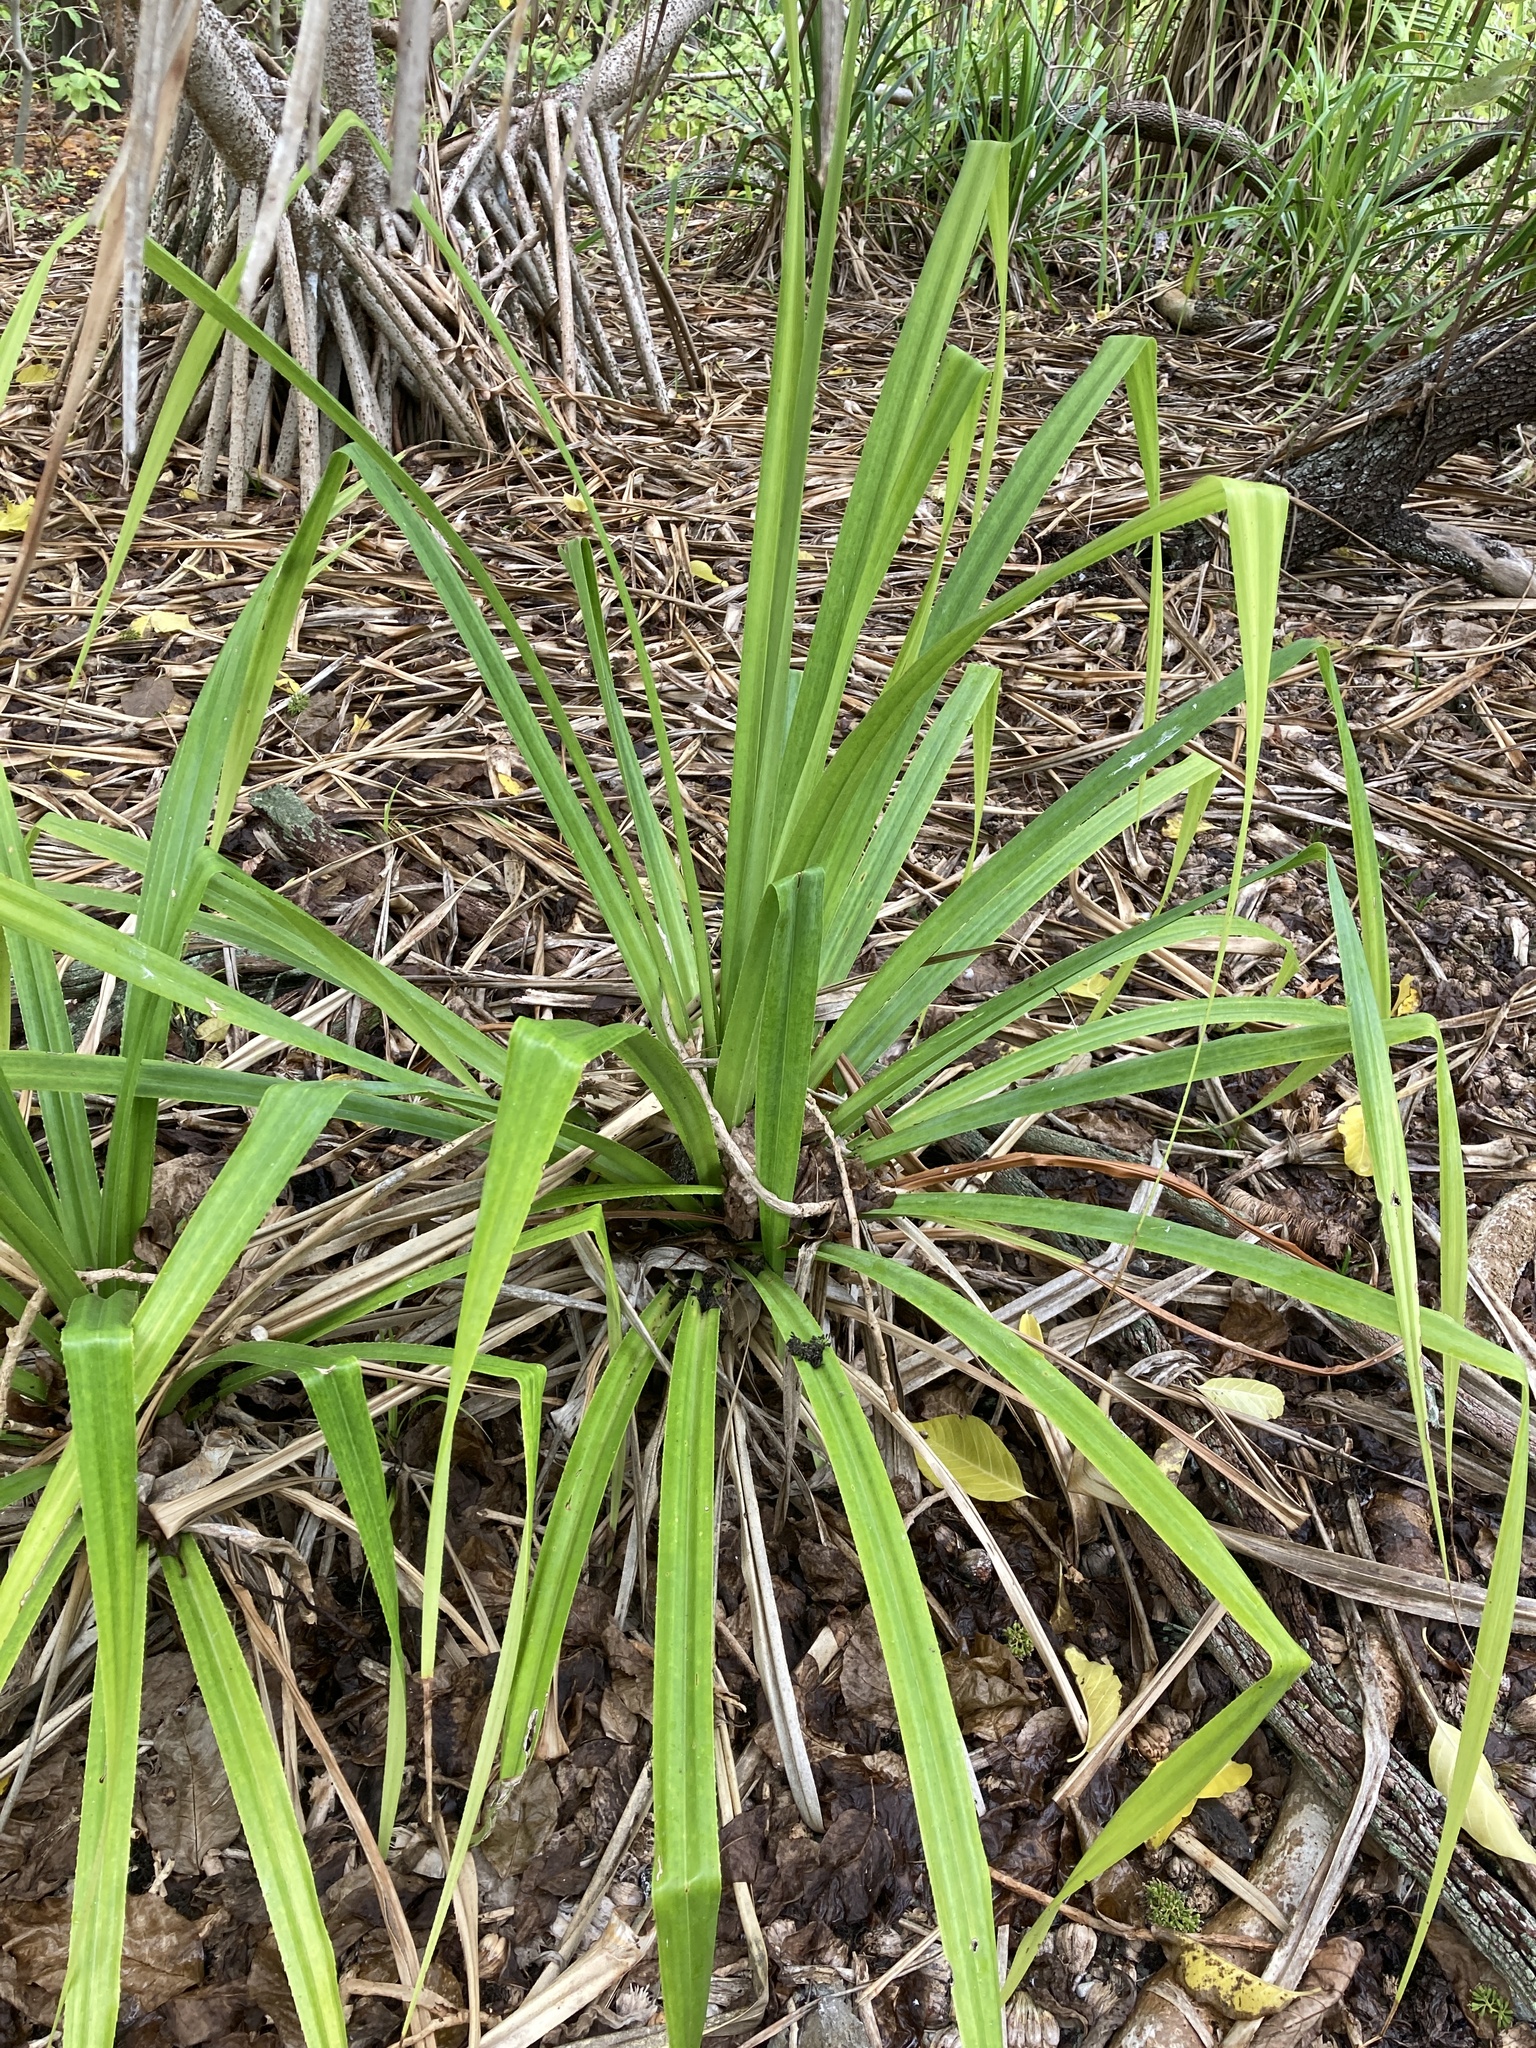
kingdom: Plantae
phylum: Tracheophyta
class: Liliopsida
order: Pandanales
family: Pandanaceae
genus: Pandanus
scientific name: Pandanus tectorius
